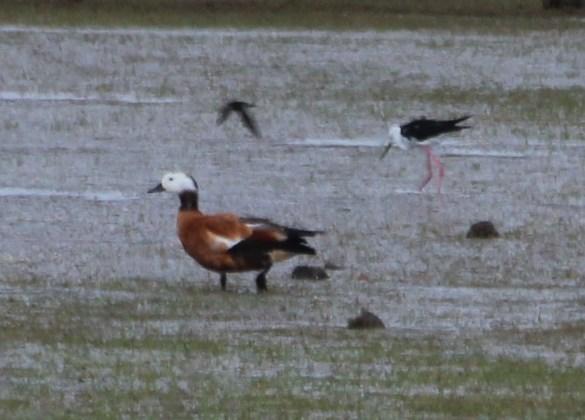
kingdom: Animalia
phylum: Chordata
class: Aves
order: Anseriformes
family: Anatidae
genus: Tadorna
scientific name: Tadorna cana
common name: South african shelduck
